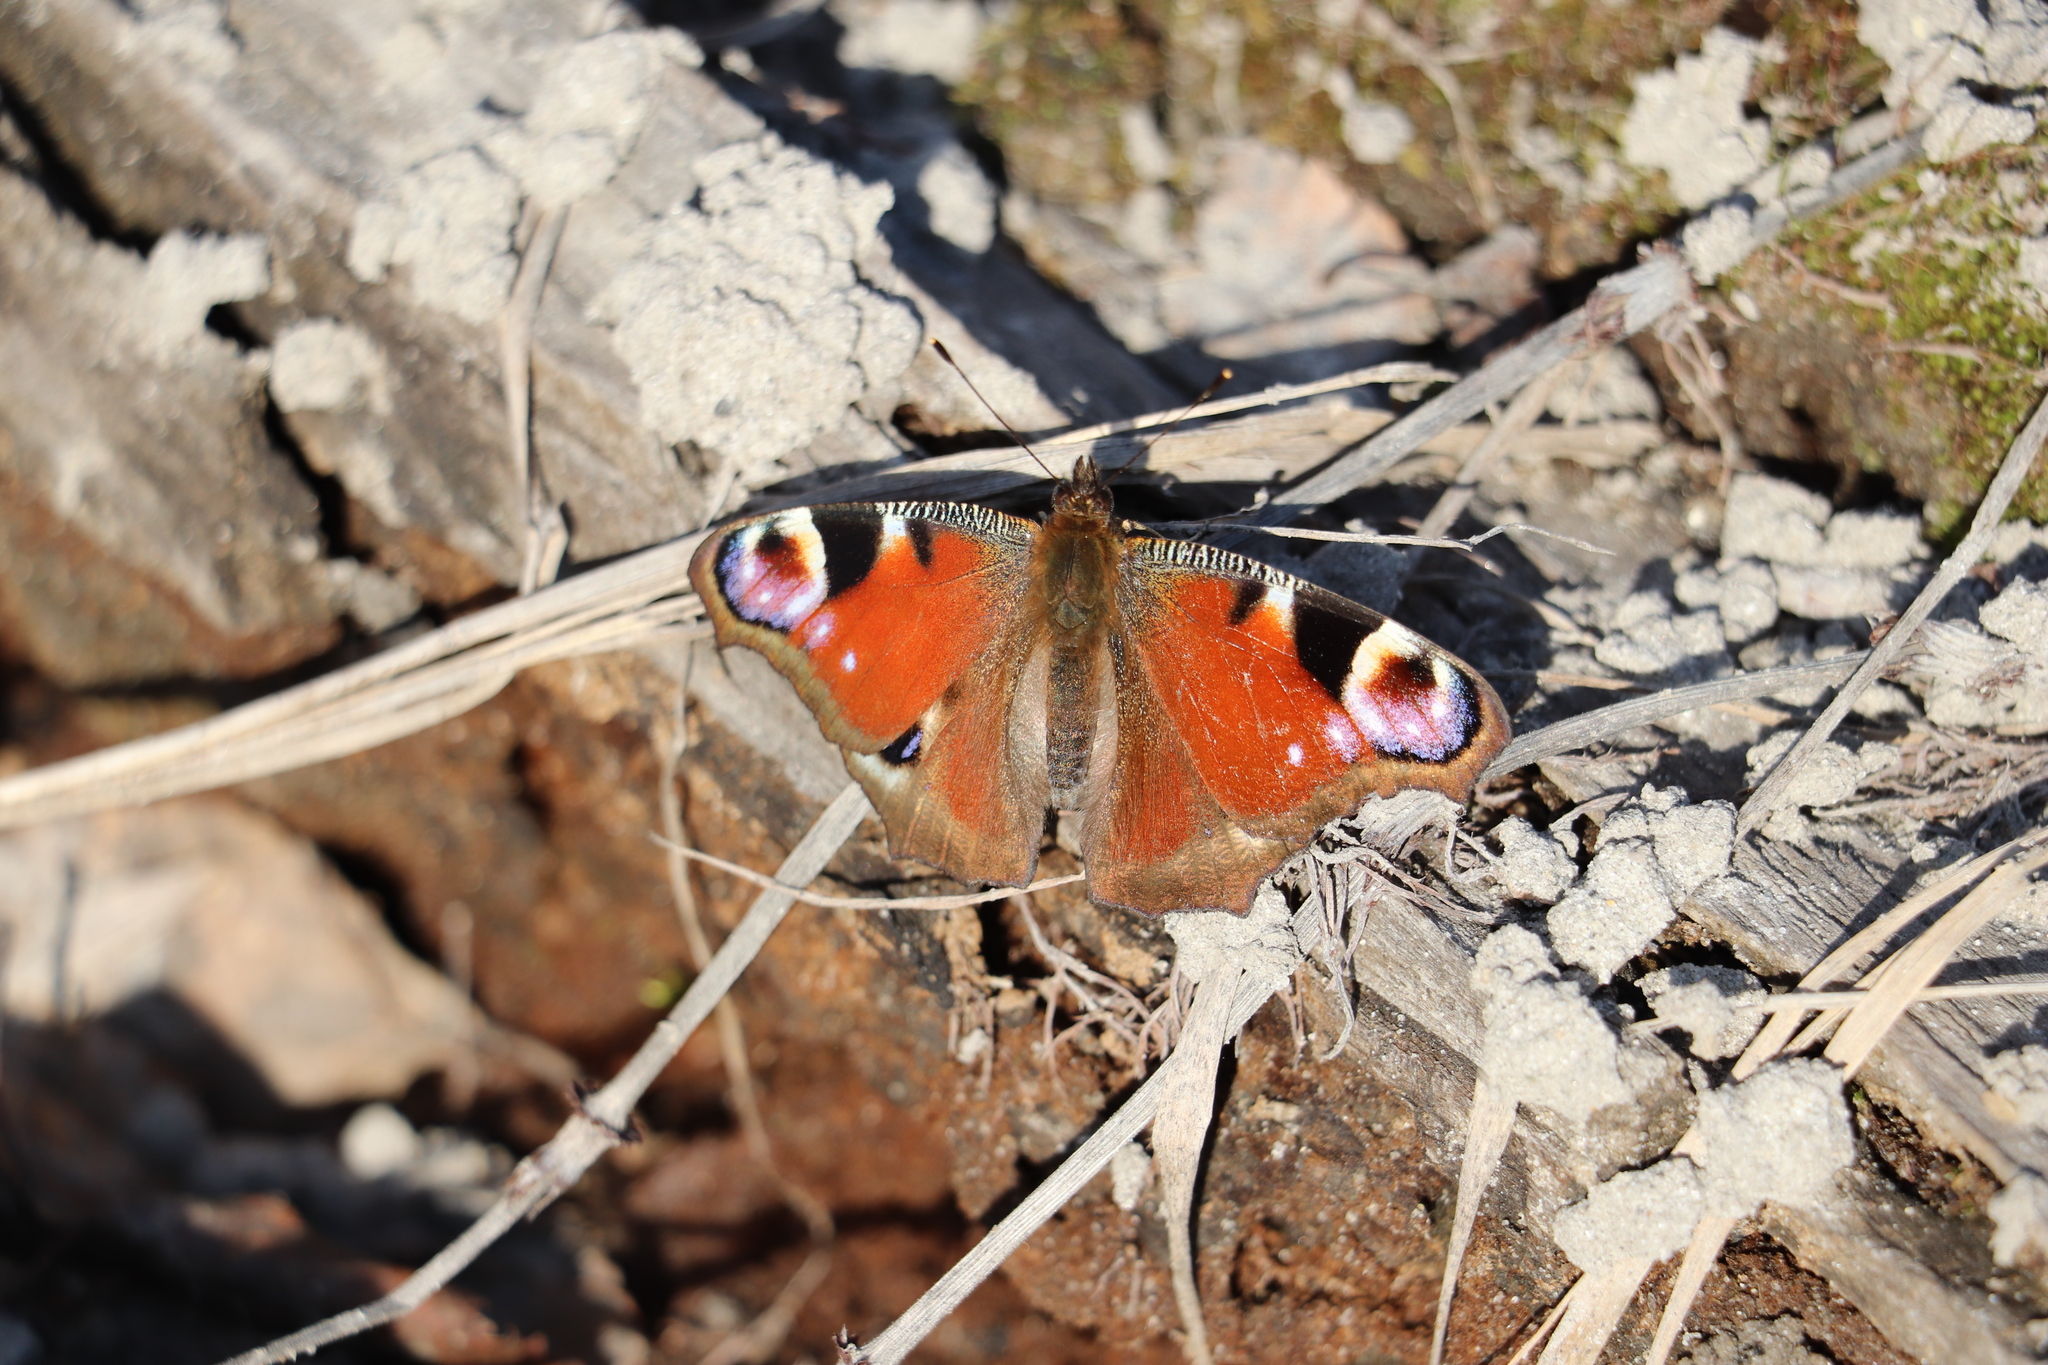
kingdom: Animalia
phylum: Arthropoda
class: Insecta
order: Lepidoptera
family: Nymphalidae
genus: Aglais
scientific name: Aglais io
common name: Peacock
